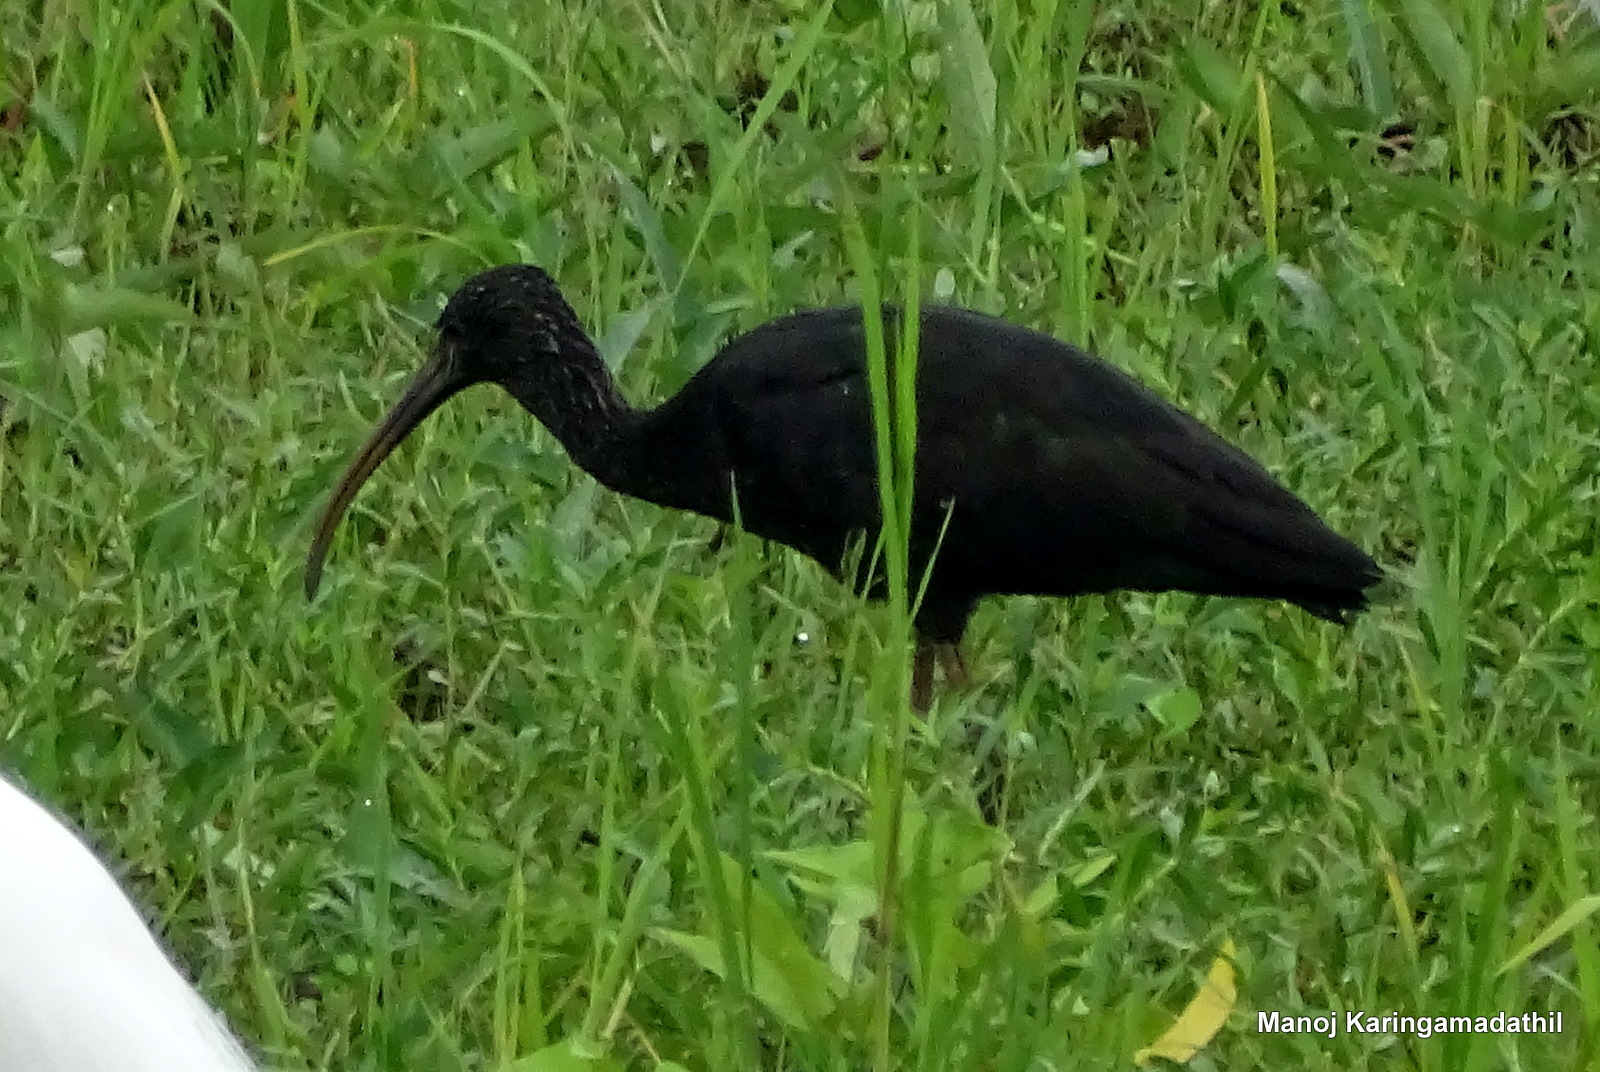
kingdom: Animalia
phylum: Chordata
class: Aves
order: Pelecaniformes
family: Threskiornithidae
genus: Plegadis
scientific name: Plegadis falcinellus
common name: Glossy ibis
